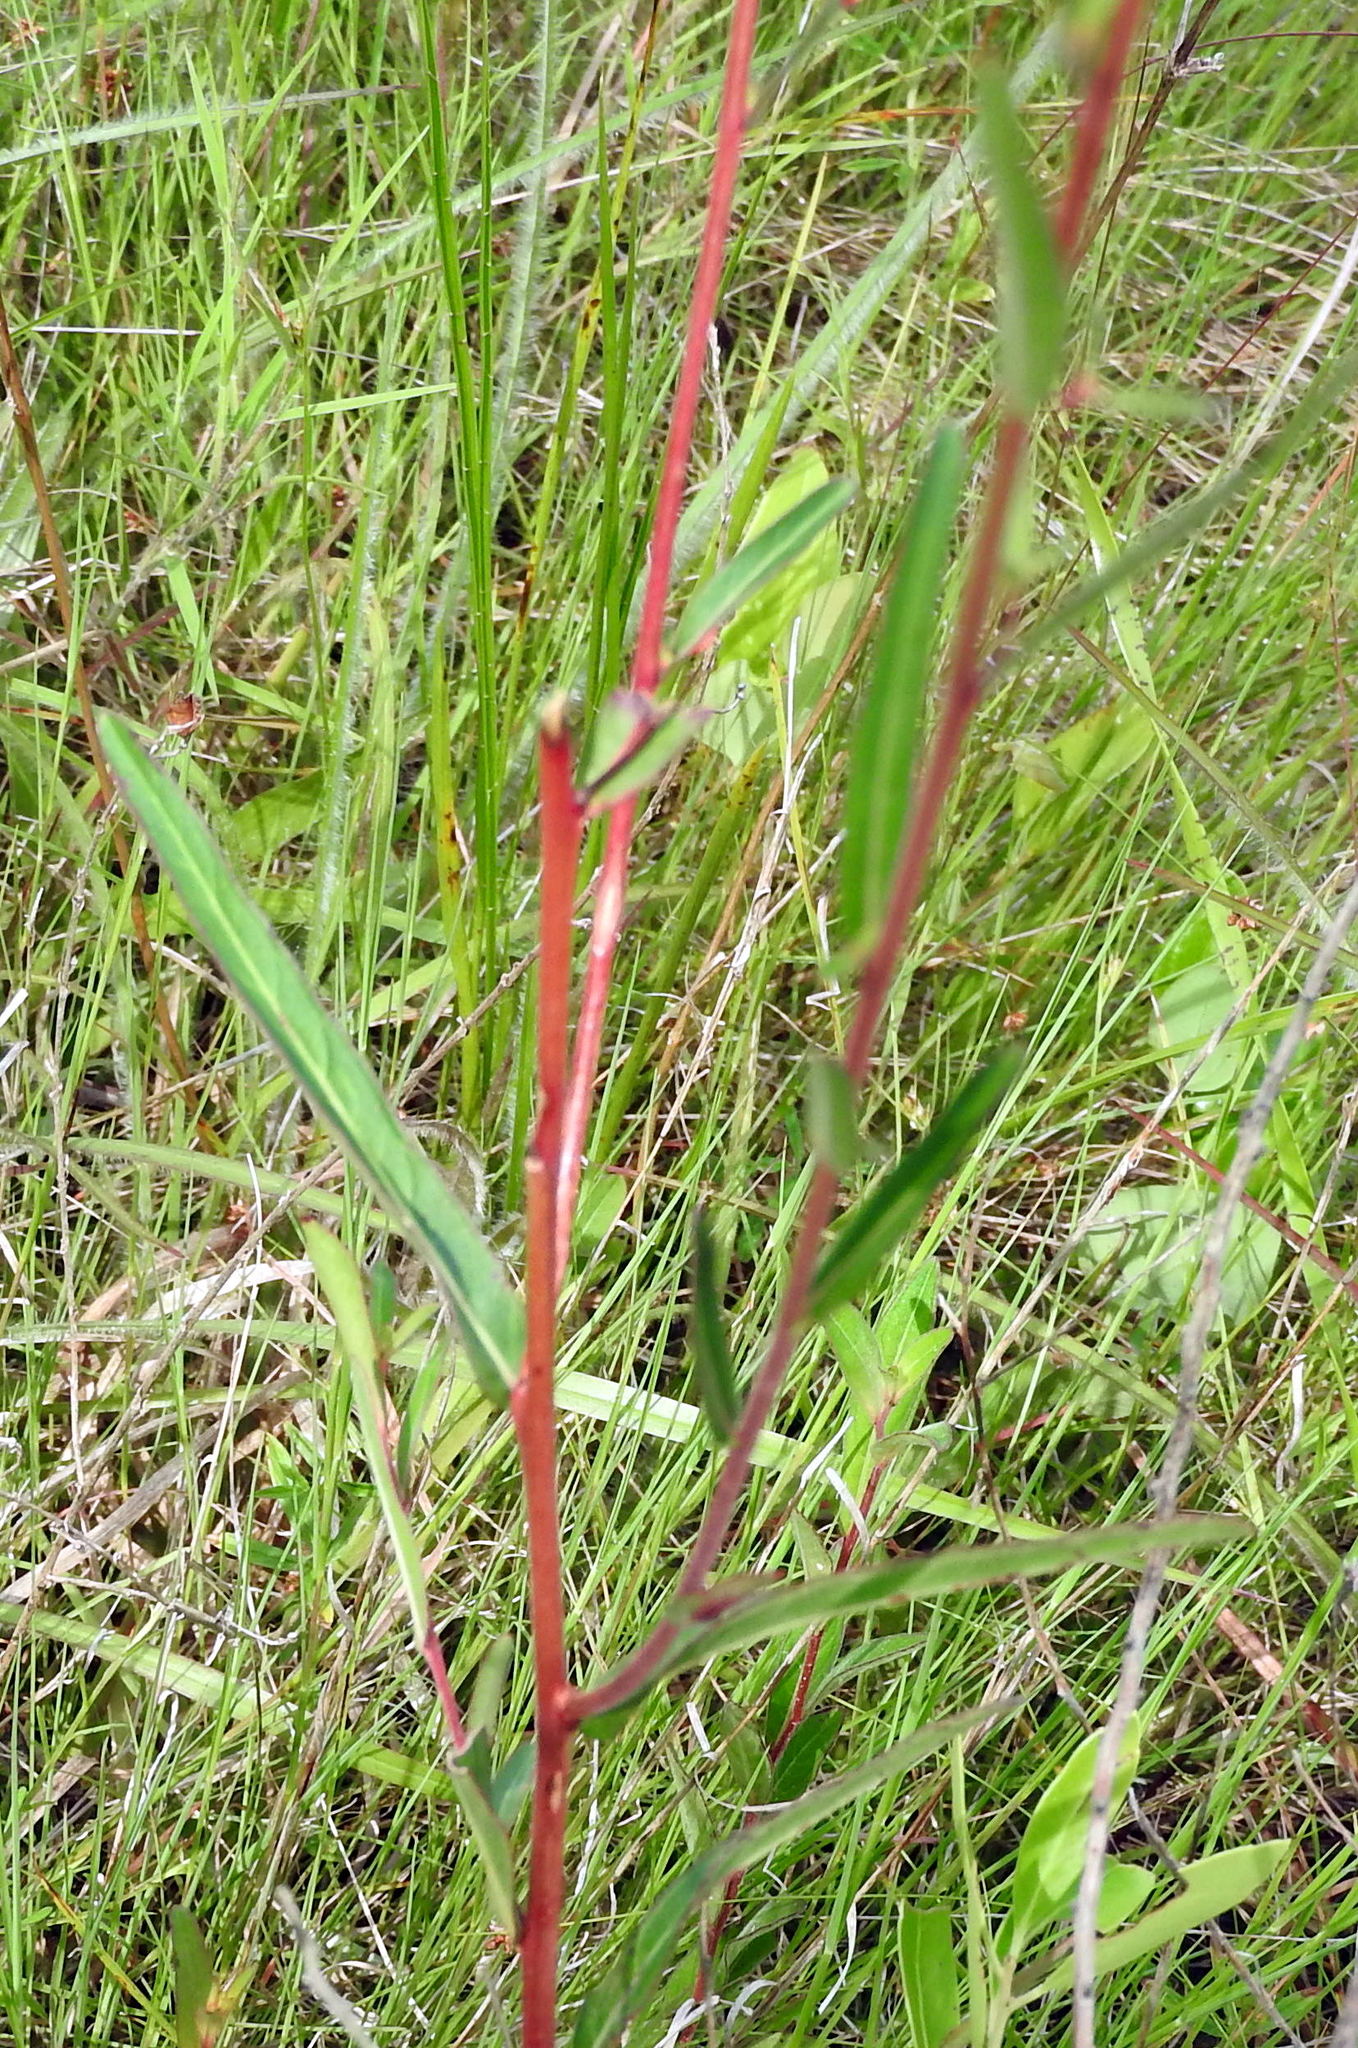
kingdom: Plantae
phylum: Tracheophyta
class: Magnoliopsida
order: Myrtales
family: Onagraceae
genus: Ludwigia
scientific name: Ludwigia virgata
